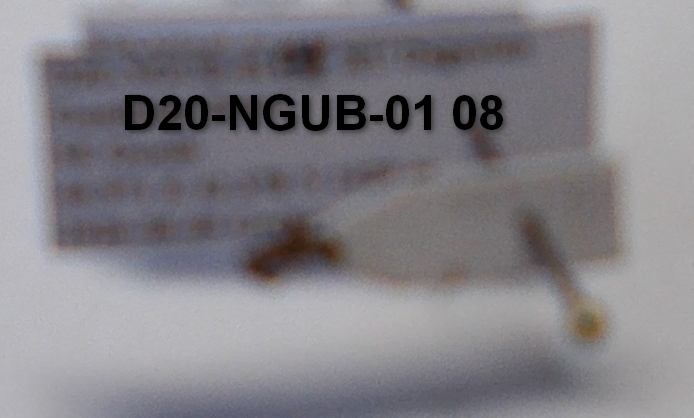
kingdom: Animalia
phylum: Arthropoda
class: Insecta
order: Hymenoptera
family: Formicidae
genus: Myrmica
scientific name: Myrmica hellenica
